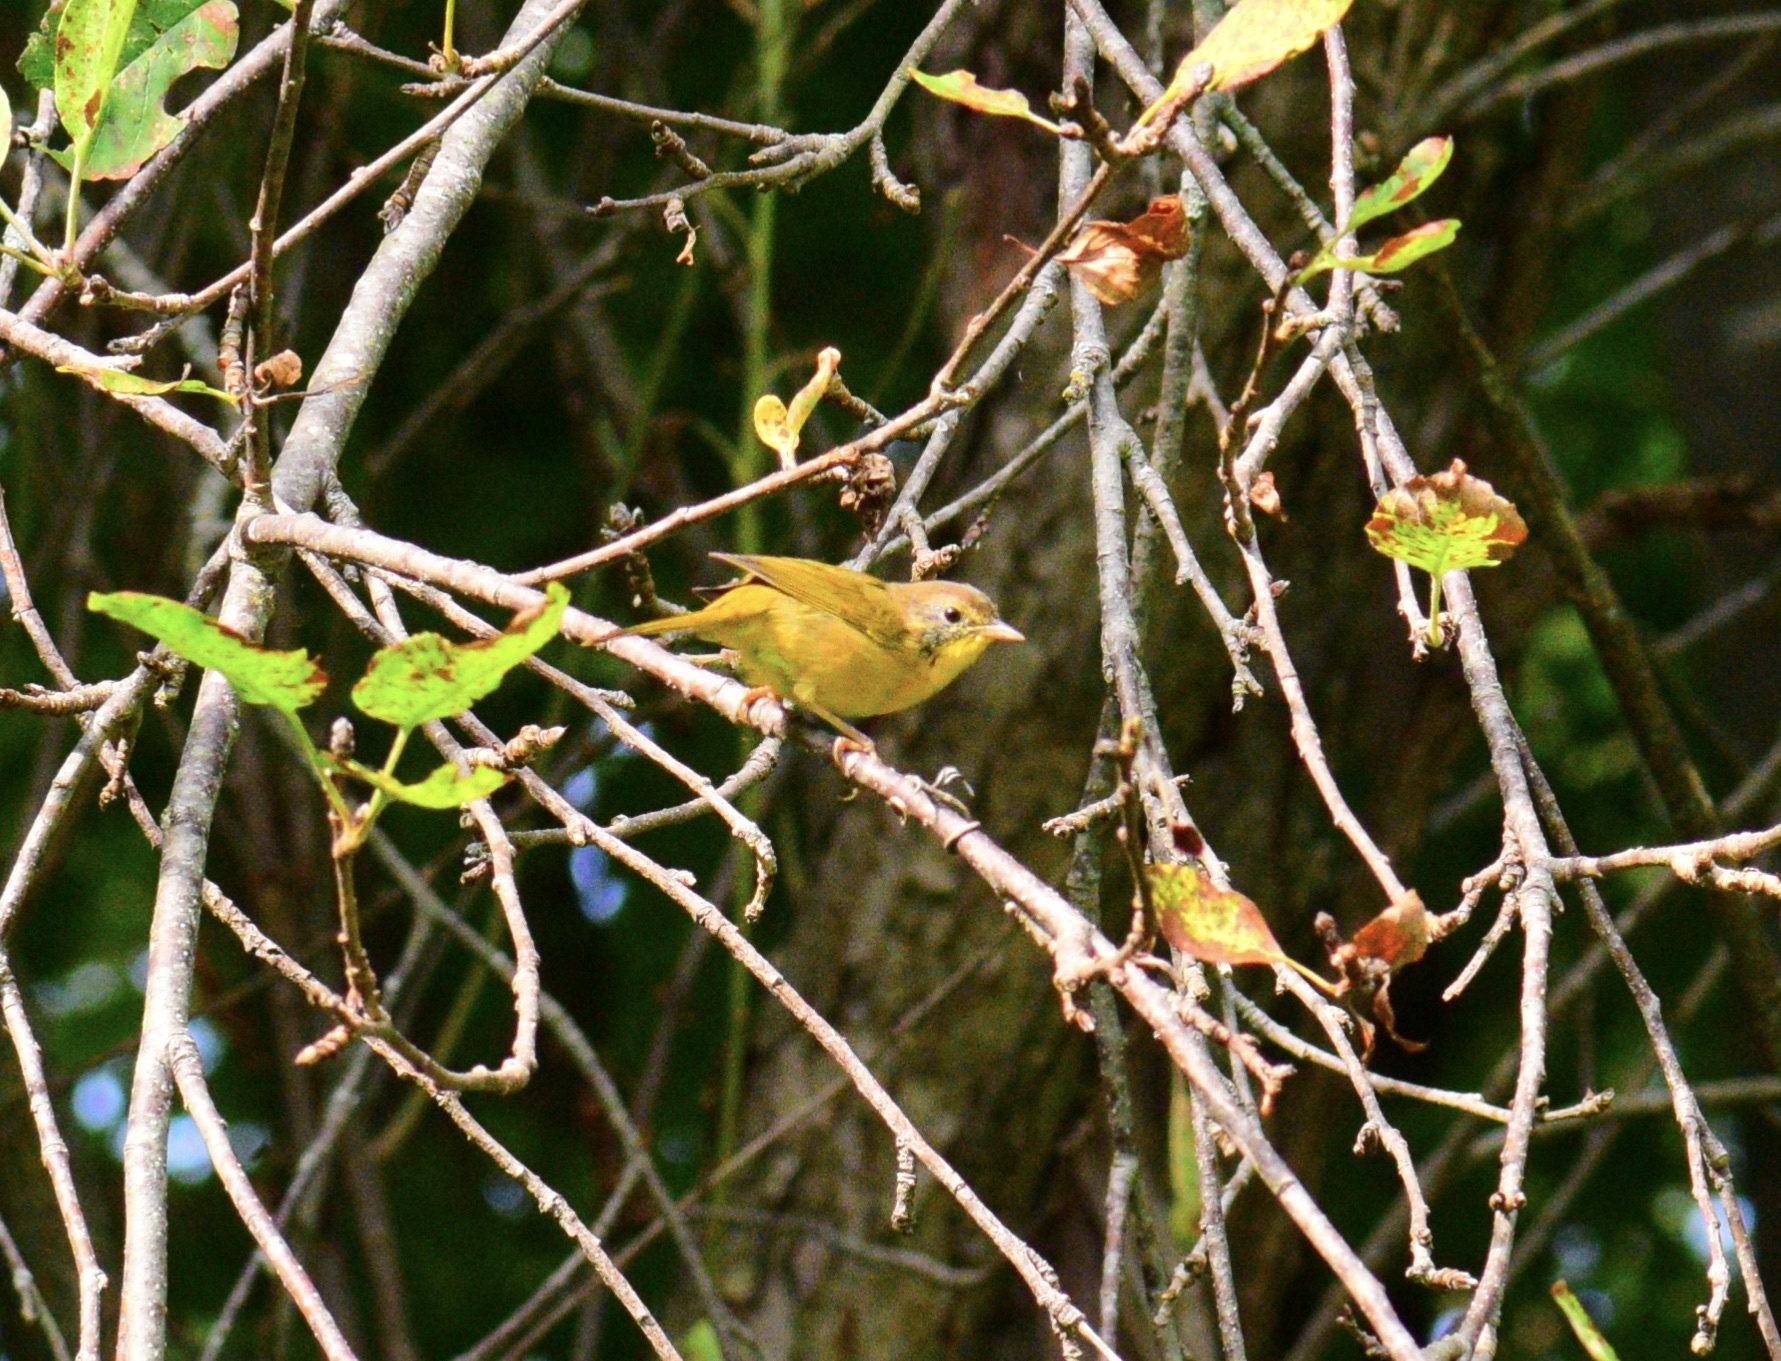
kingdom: Animalia
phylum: Chordata
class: Aves
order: Passeriformes
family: Parulidae
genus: Geothlypis
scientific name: Geothlypis trichas
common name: Common yellowthroat
